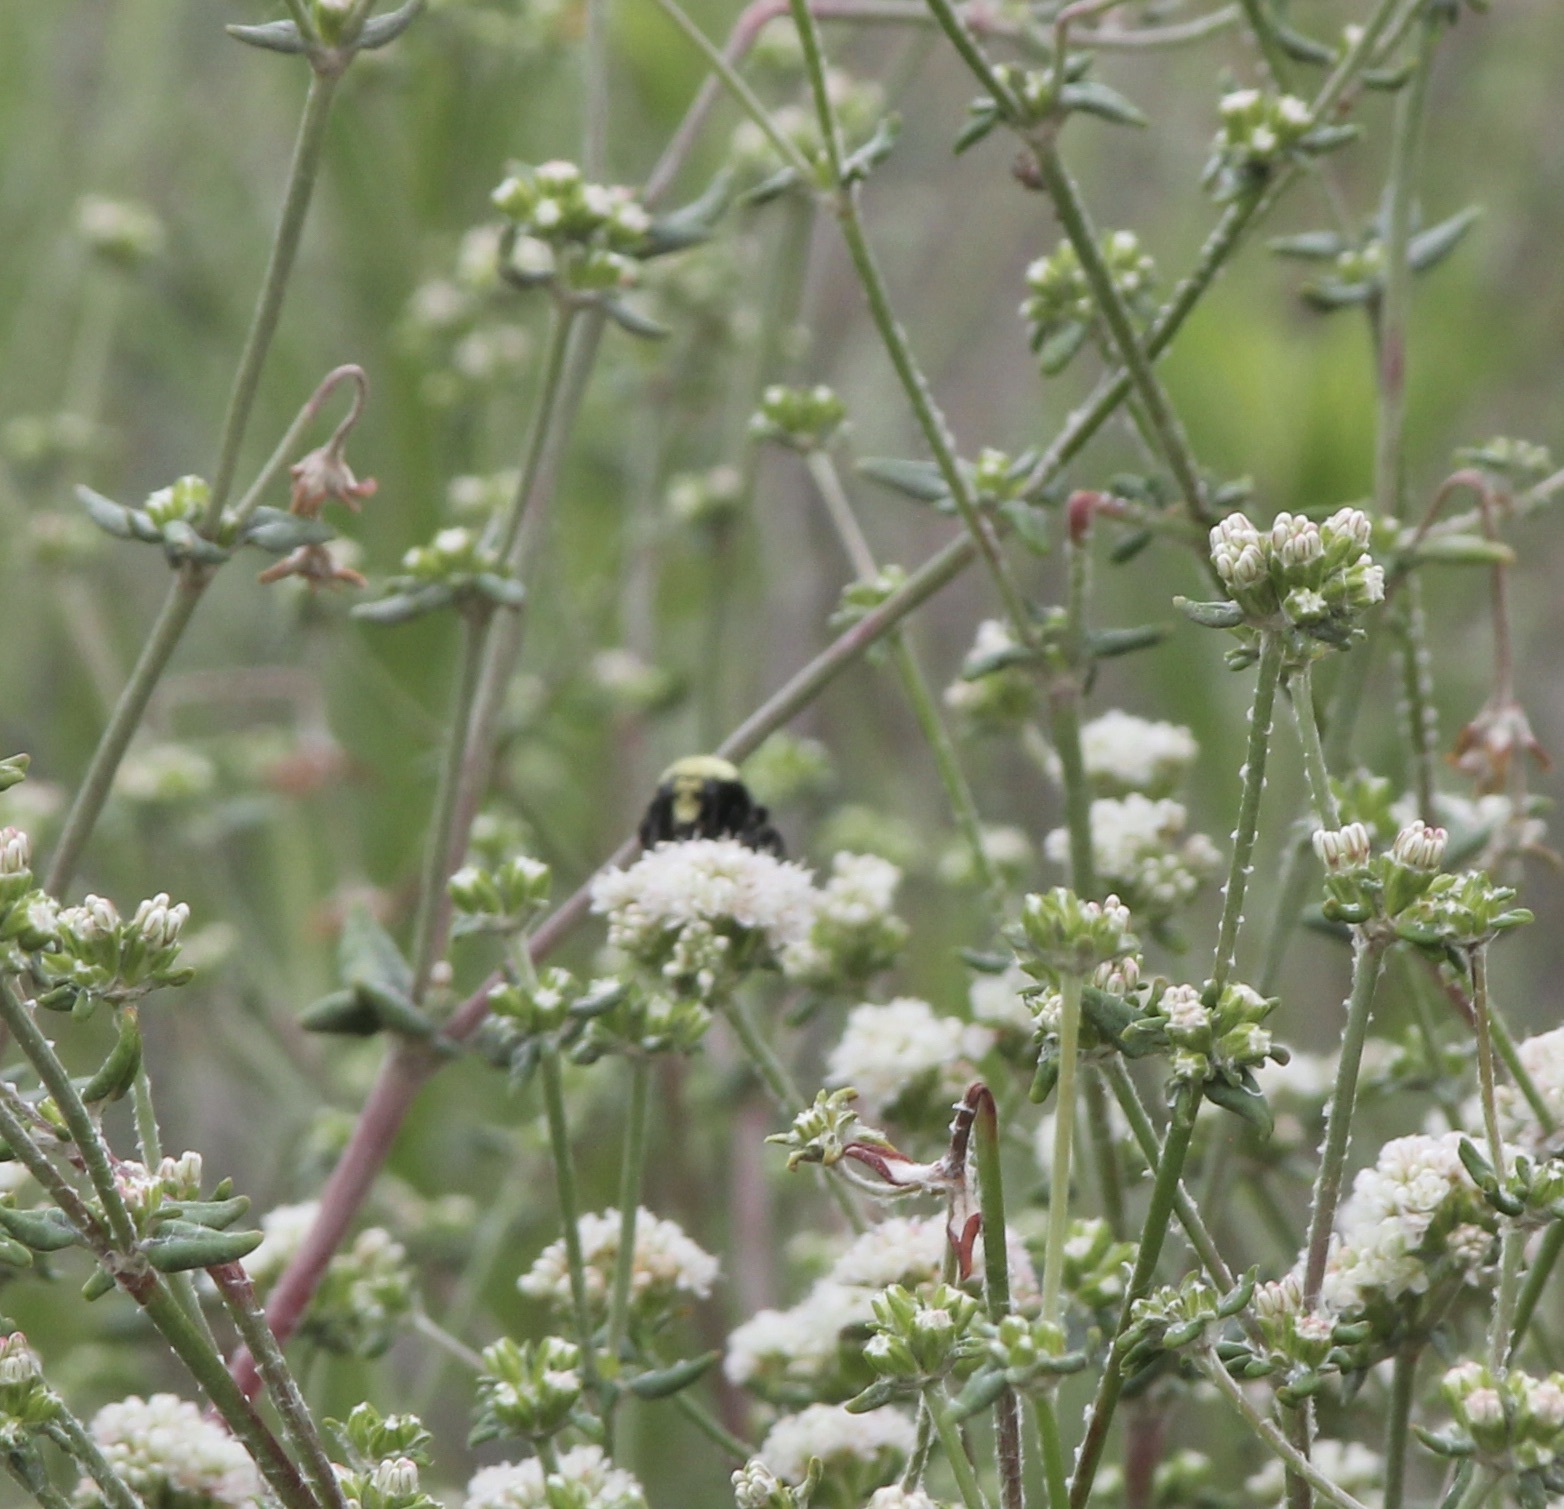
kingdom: Animalia
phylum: Arthropoda
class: Insecta
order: Hymenoptera
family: Apidae
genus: Bombus
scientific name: Bombus vosnesenskii
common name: Vosnesensky bumble bee
